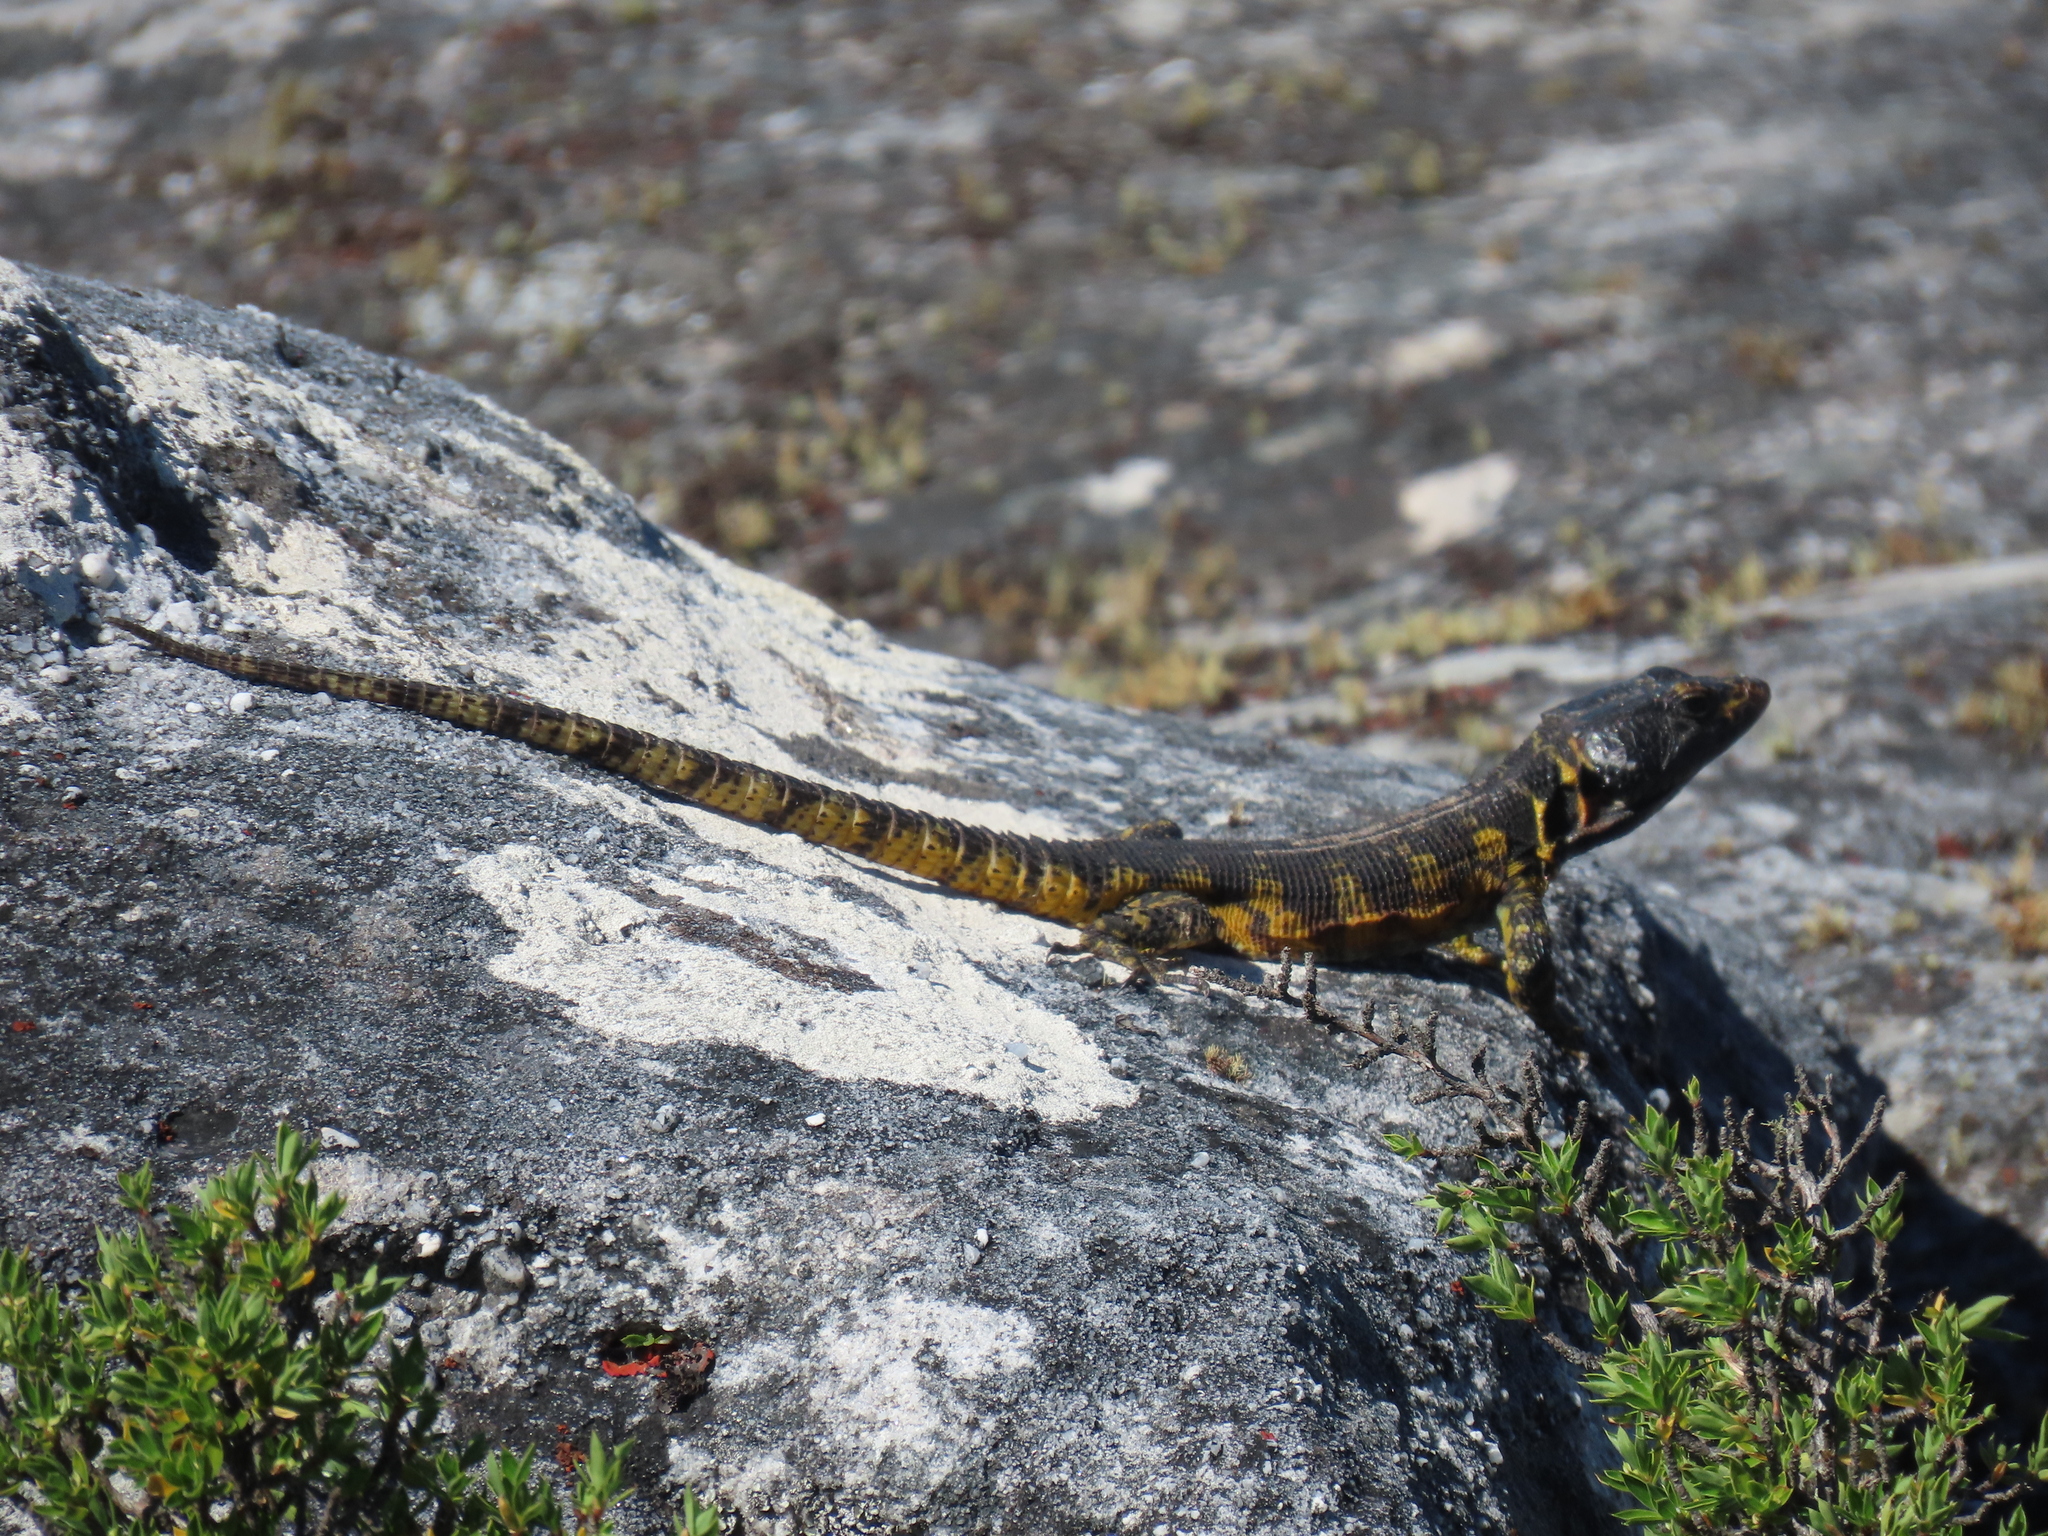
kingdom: Animalia
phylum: Chordata
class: Squamata
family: Cordylidae
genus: Pseudocordylus
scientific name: Pseudocordylus microlepidotus
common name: Cape crag lizard
